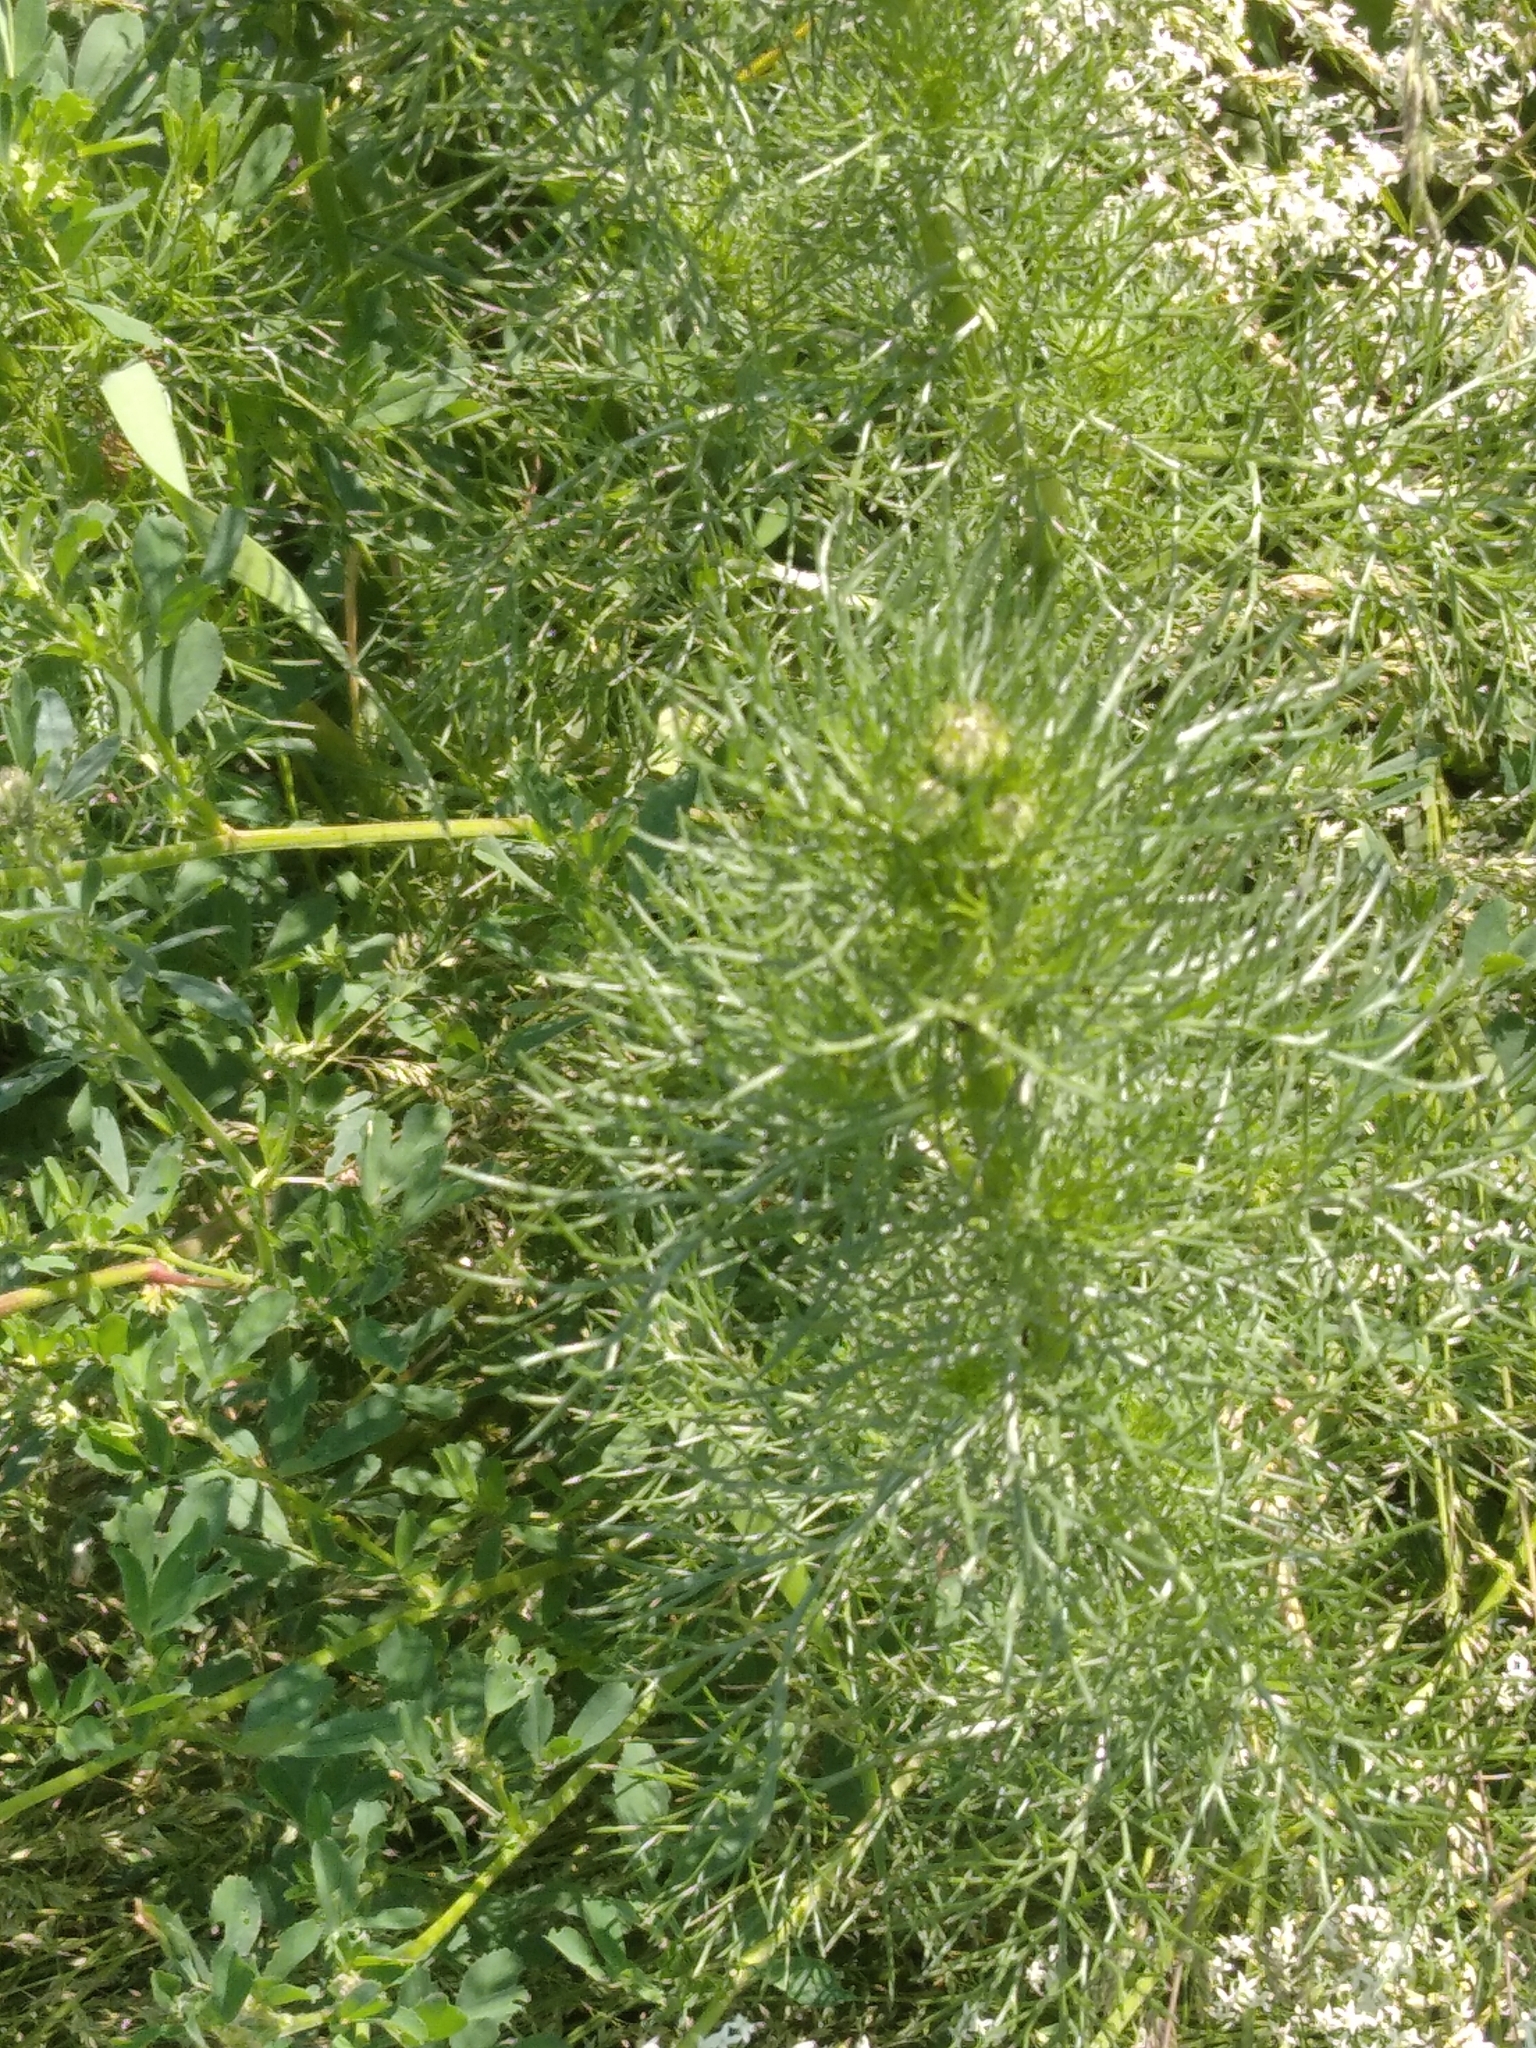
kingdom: Plantae
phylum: Tracheophyta
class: Magnoliopsida
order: Asterales
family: Asteraceae
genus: Tripleurospermum
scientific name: Tripleurospermum inodorum
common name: Scentless mayweed
